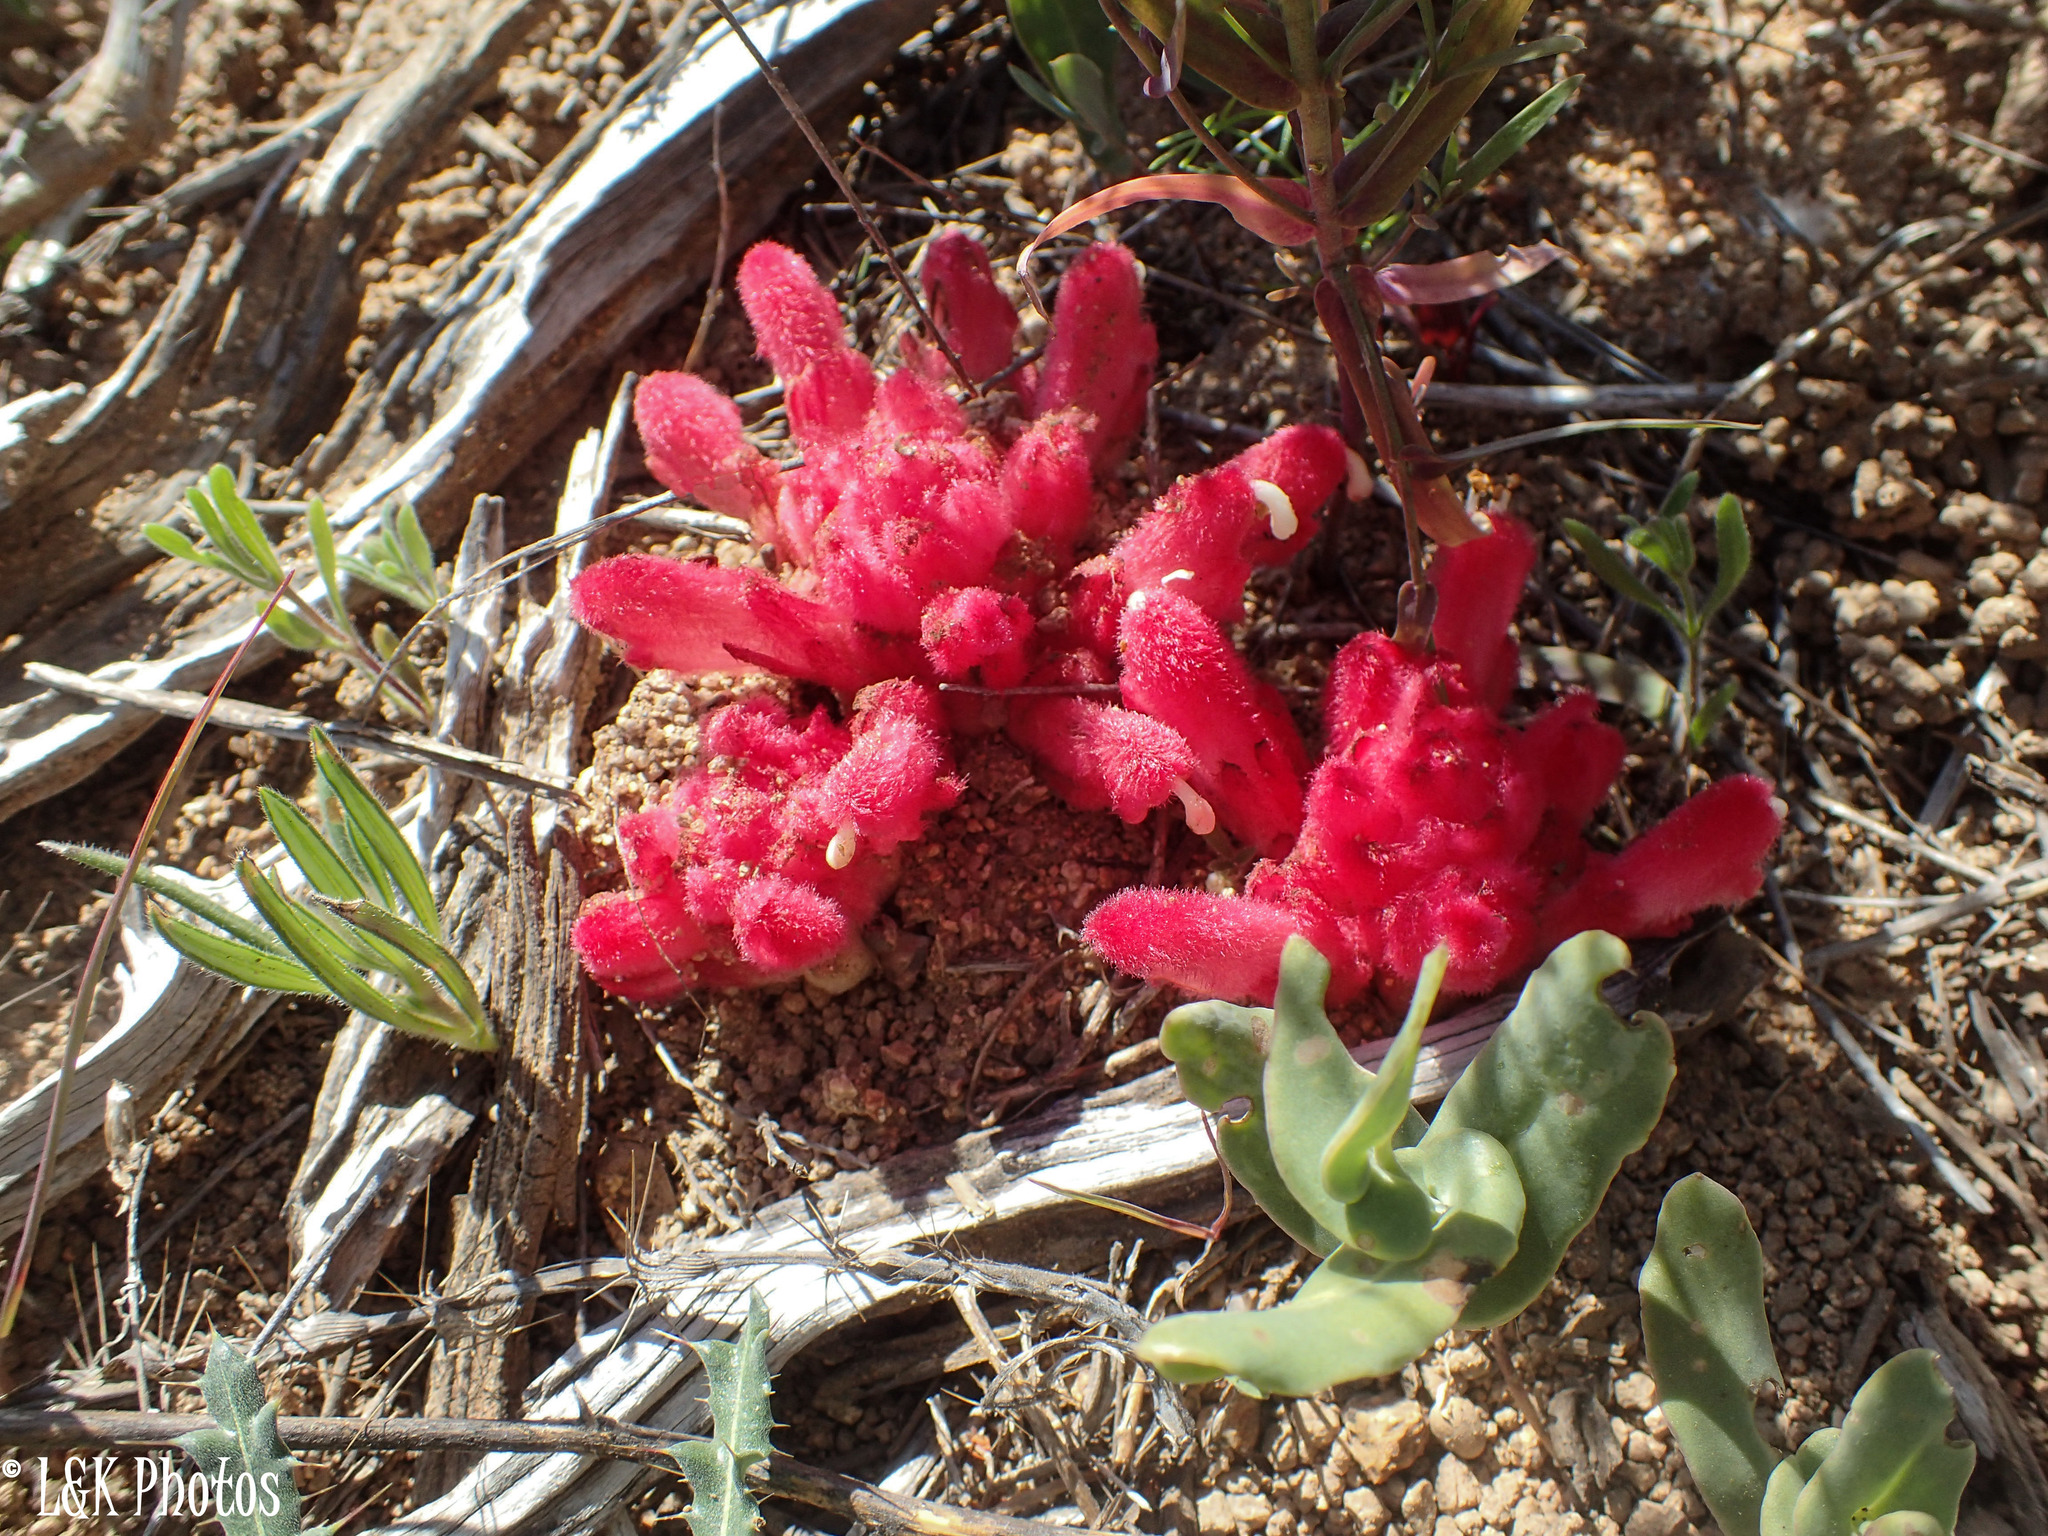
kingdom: Plantae
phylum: Tracheophyta
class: Magnoliopsida
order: Lamiales
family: Orobanchaceae
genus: Hyobanche
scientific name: Hyobanche sanguinea
